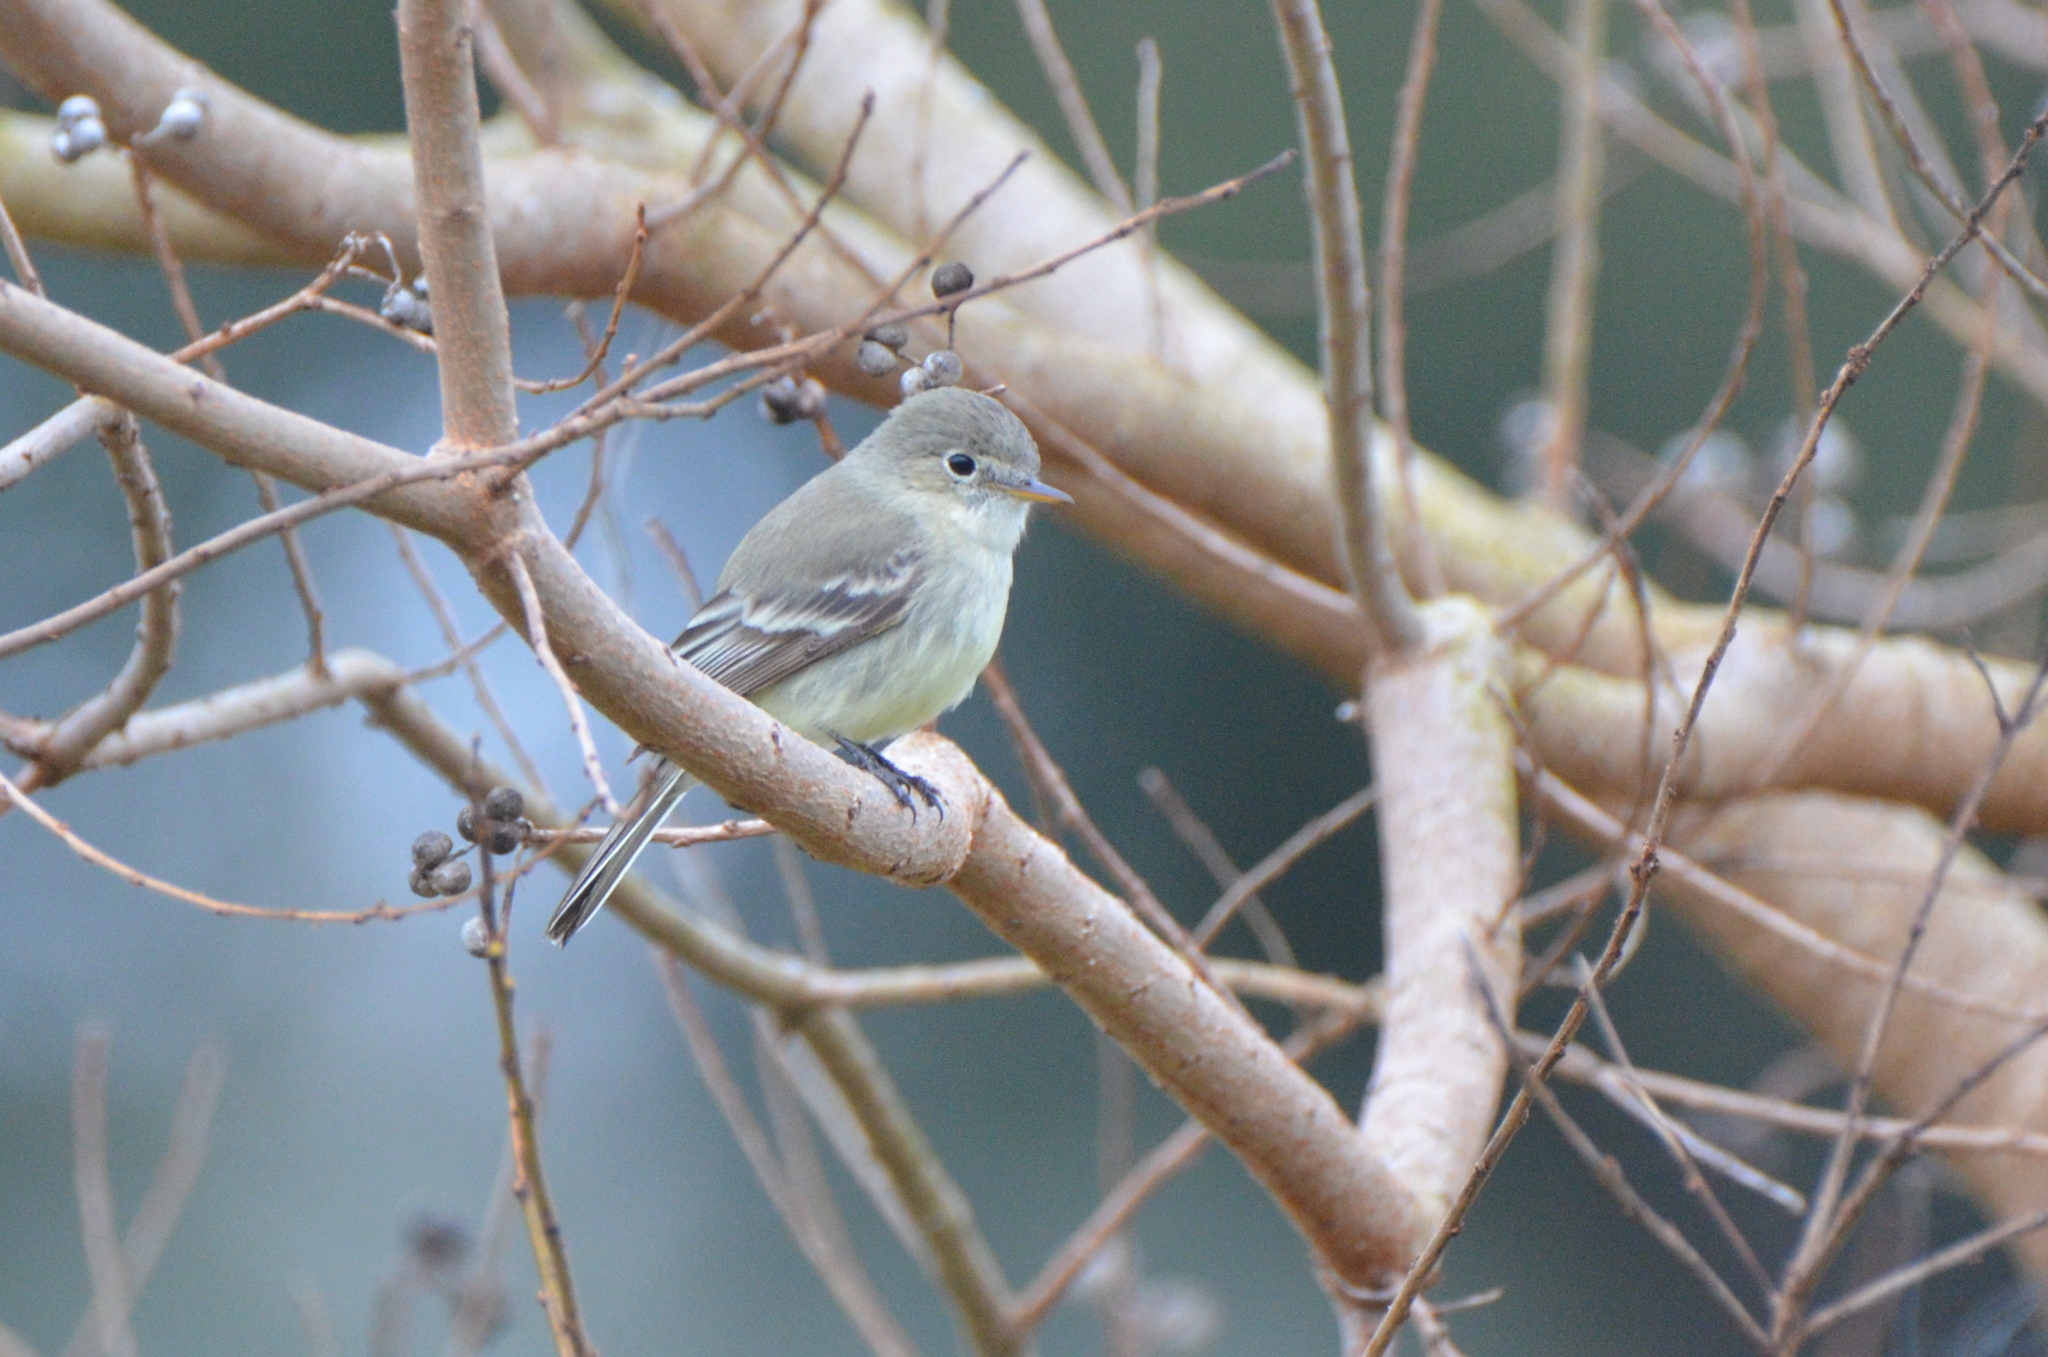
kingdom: Animalia
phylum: Chordata
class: Aves
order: Passeriformes
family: Tyrannidae
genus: Empidonax
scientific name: Empidonax wrightii
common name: Gray flycatcher
